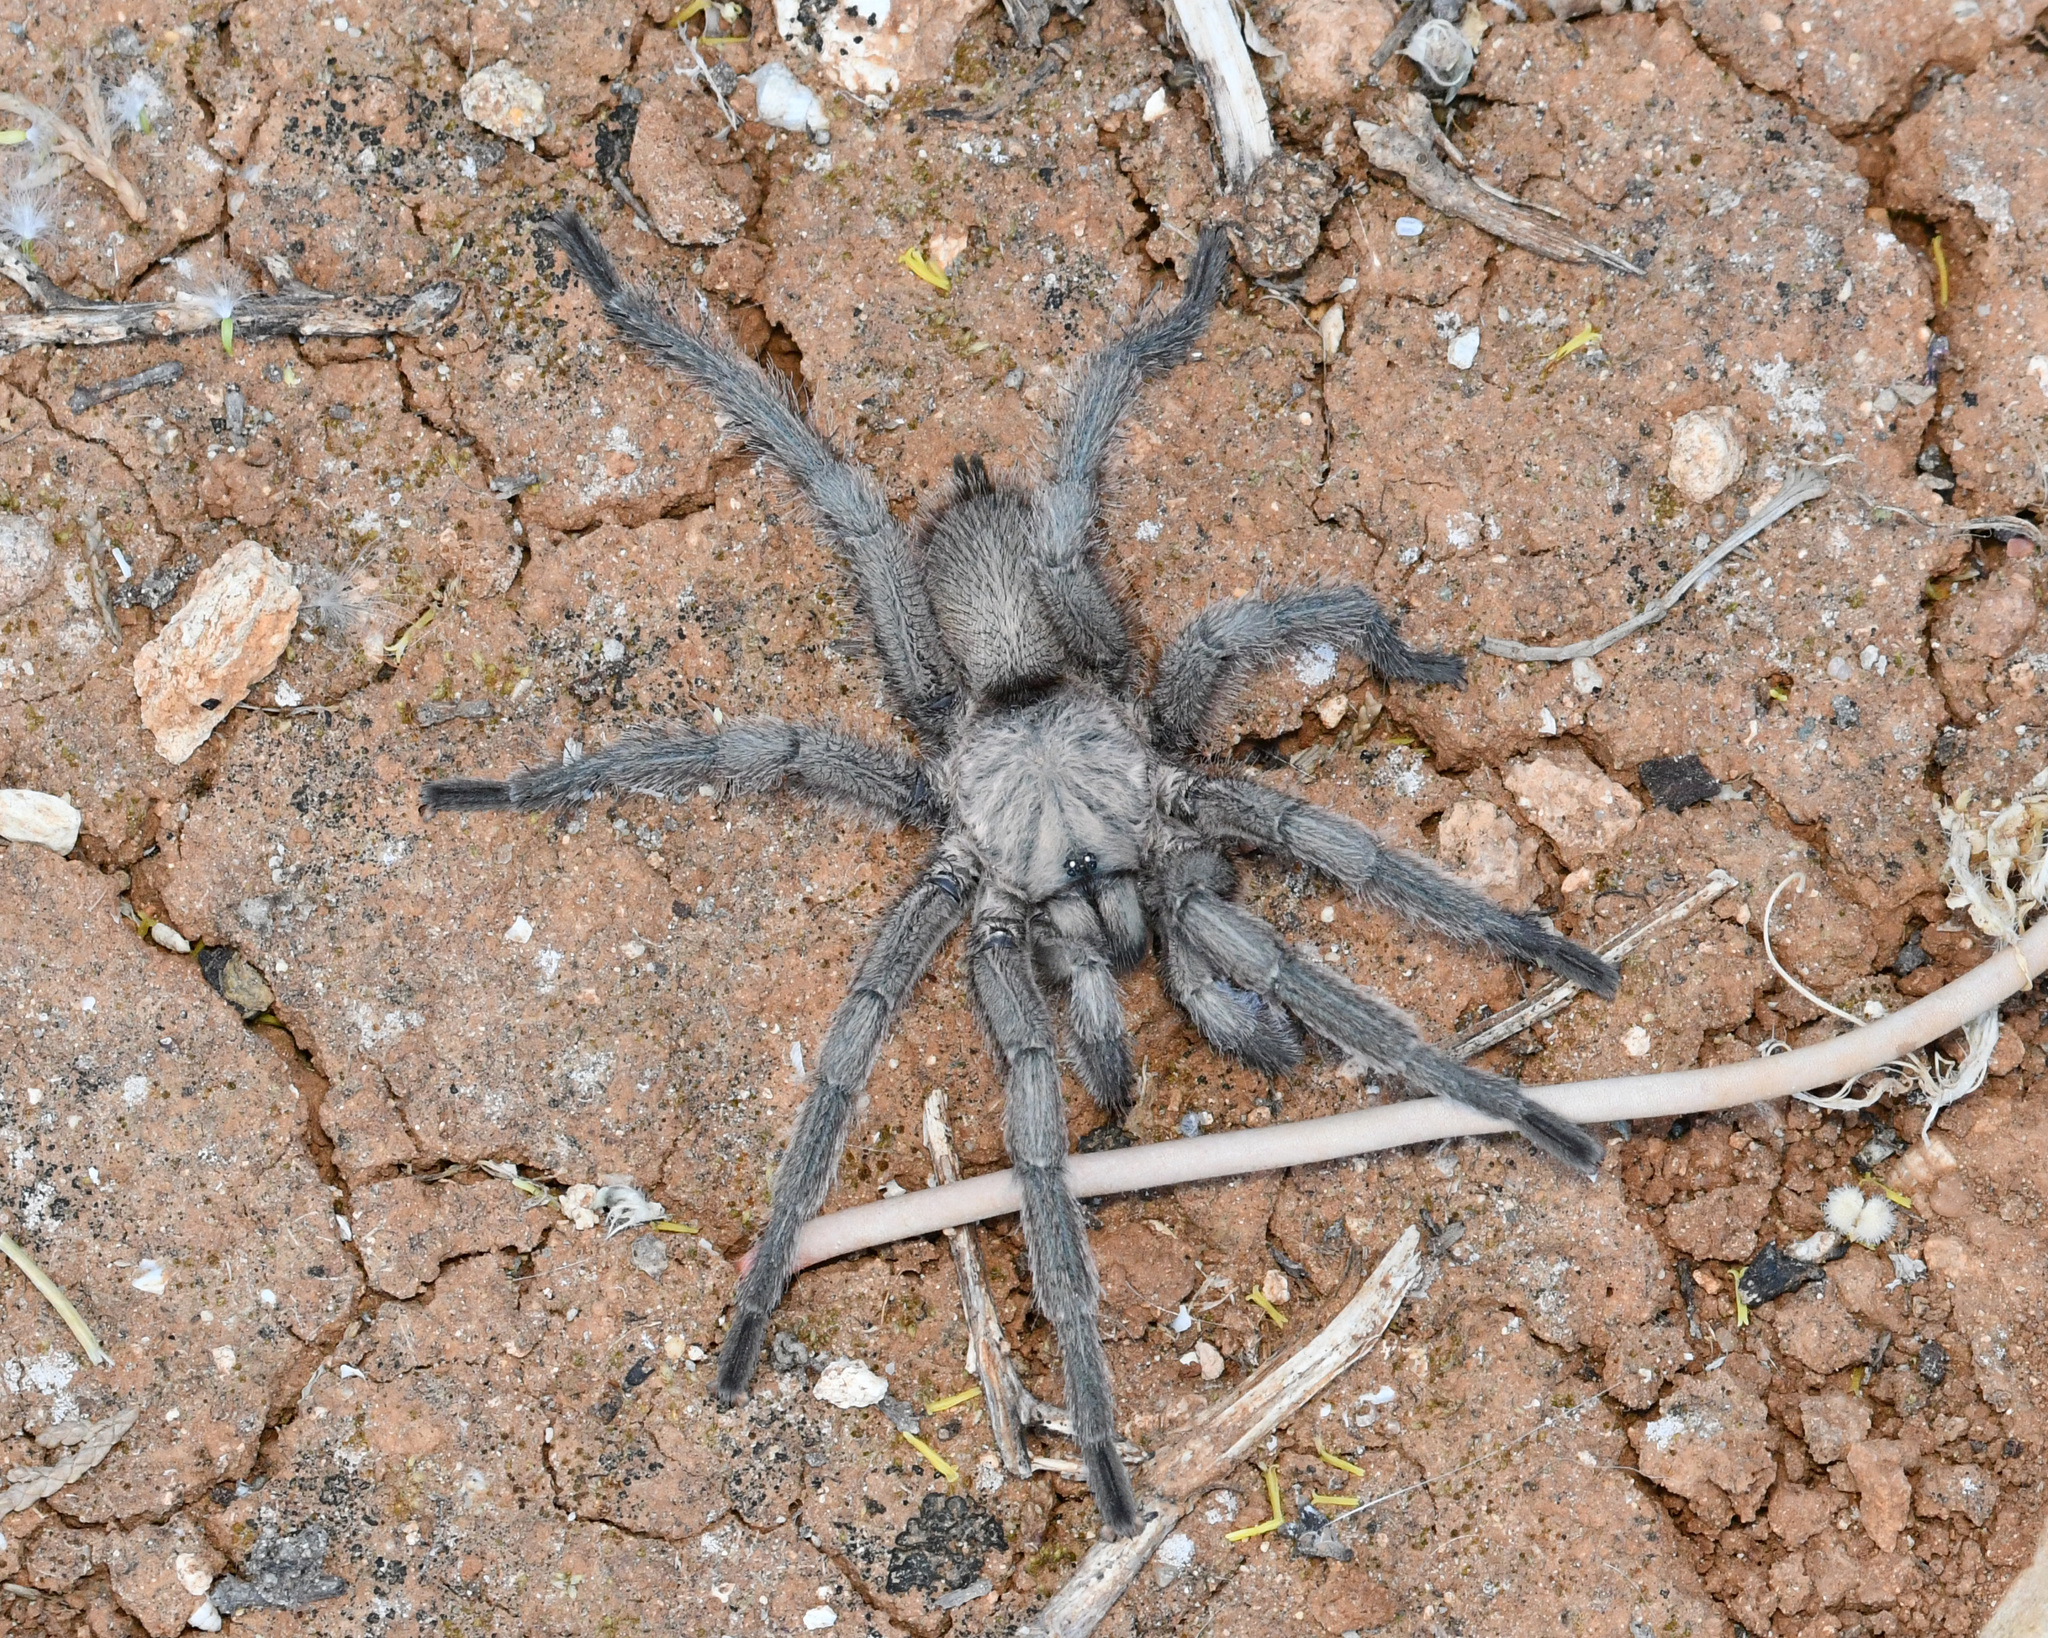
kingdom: Animalia
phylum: Arthropoda
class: Arachnida
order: Araneae
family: Theraphosidae
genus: Chaetopelma
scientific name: Chaetopelma olivaceum
